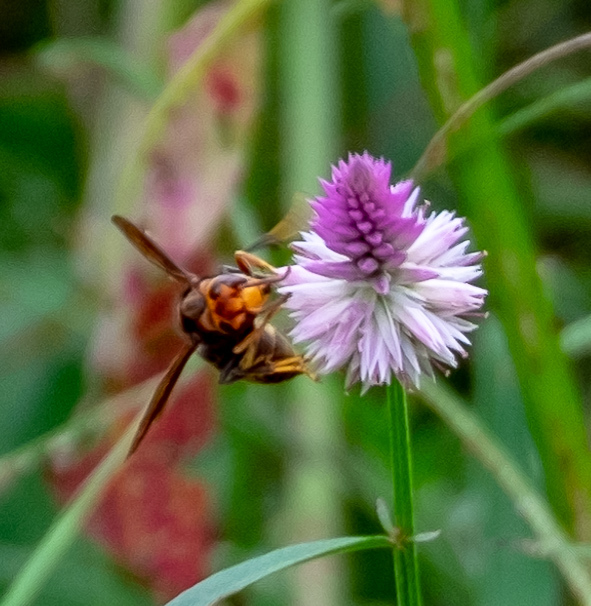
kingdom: Animalia
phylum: Arthropoda
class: Insecta
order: Hymenoptera
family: Vespidae
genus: Vespa
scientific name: Vespa velutina
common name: Asian hornet
